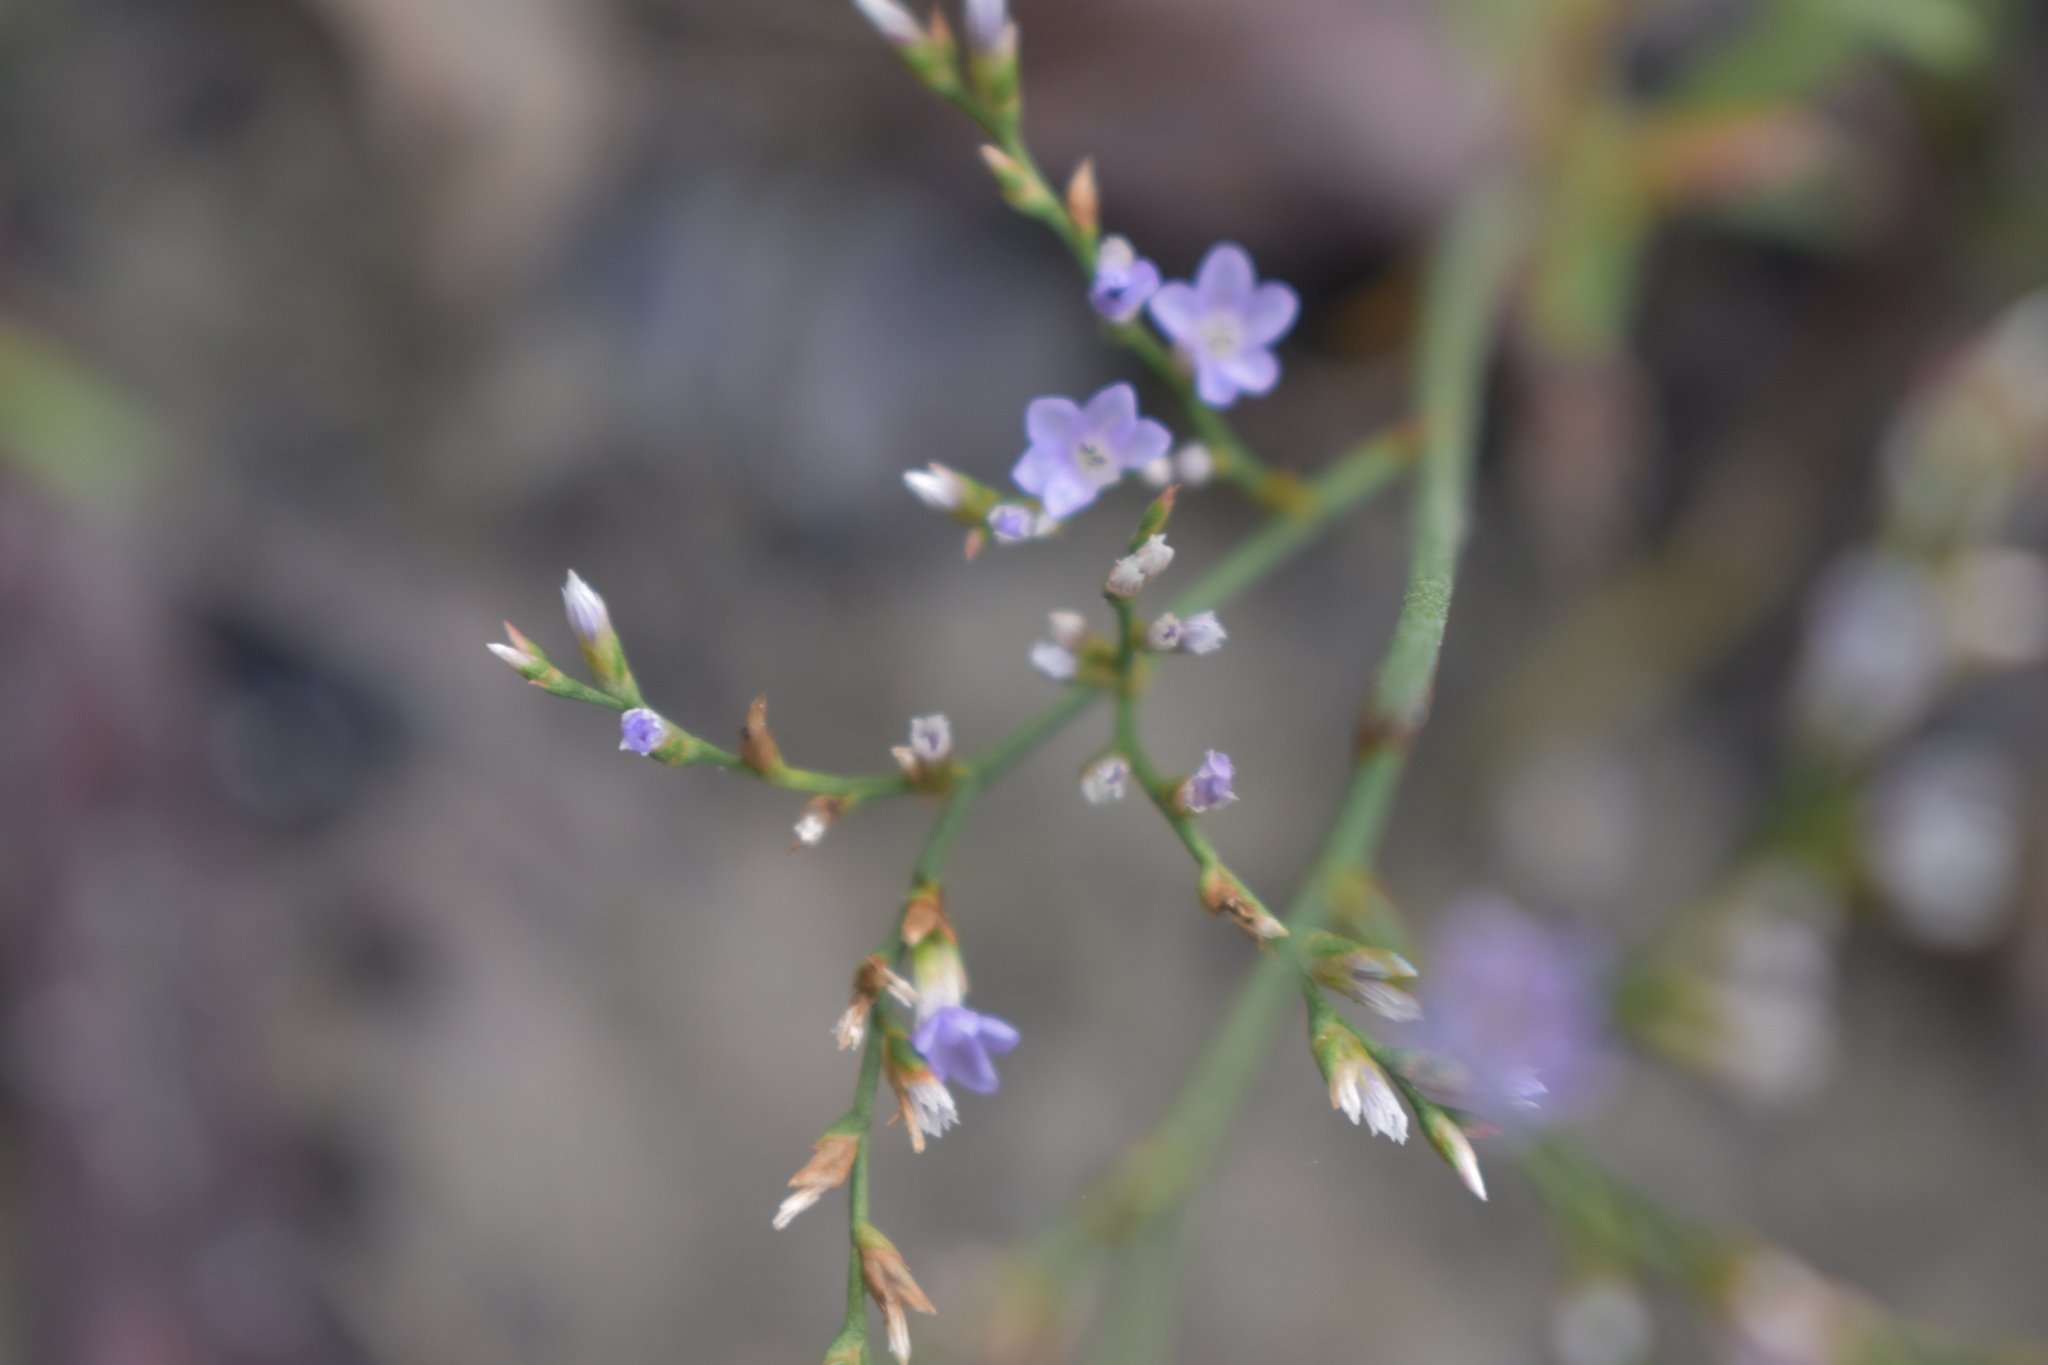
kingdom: Plantae
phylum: Tracheophyta
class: Magnoliopsida
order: Caryophyllales
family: Plumbaginaceae
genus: Limonium
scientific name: Limonium carolinianum
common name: Carolina sea lavender
